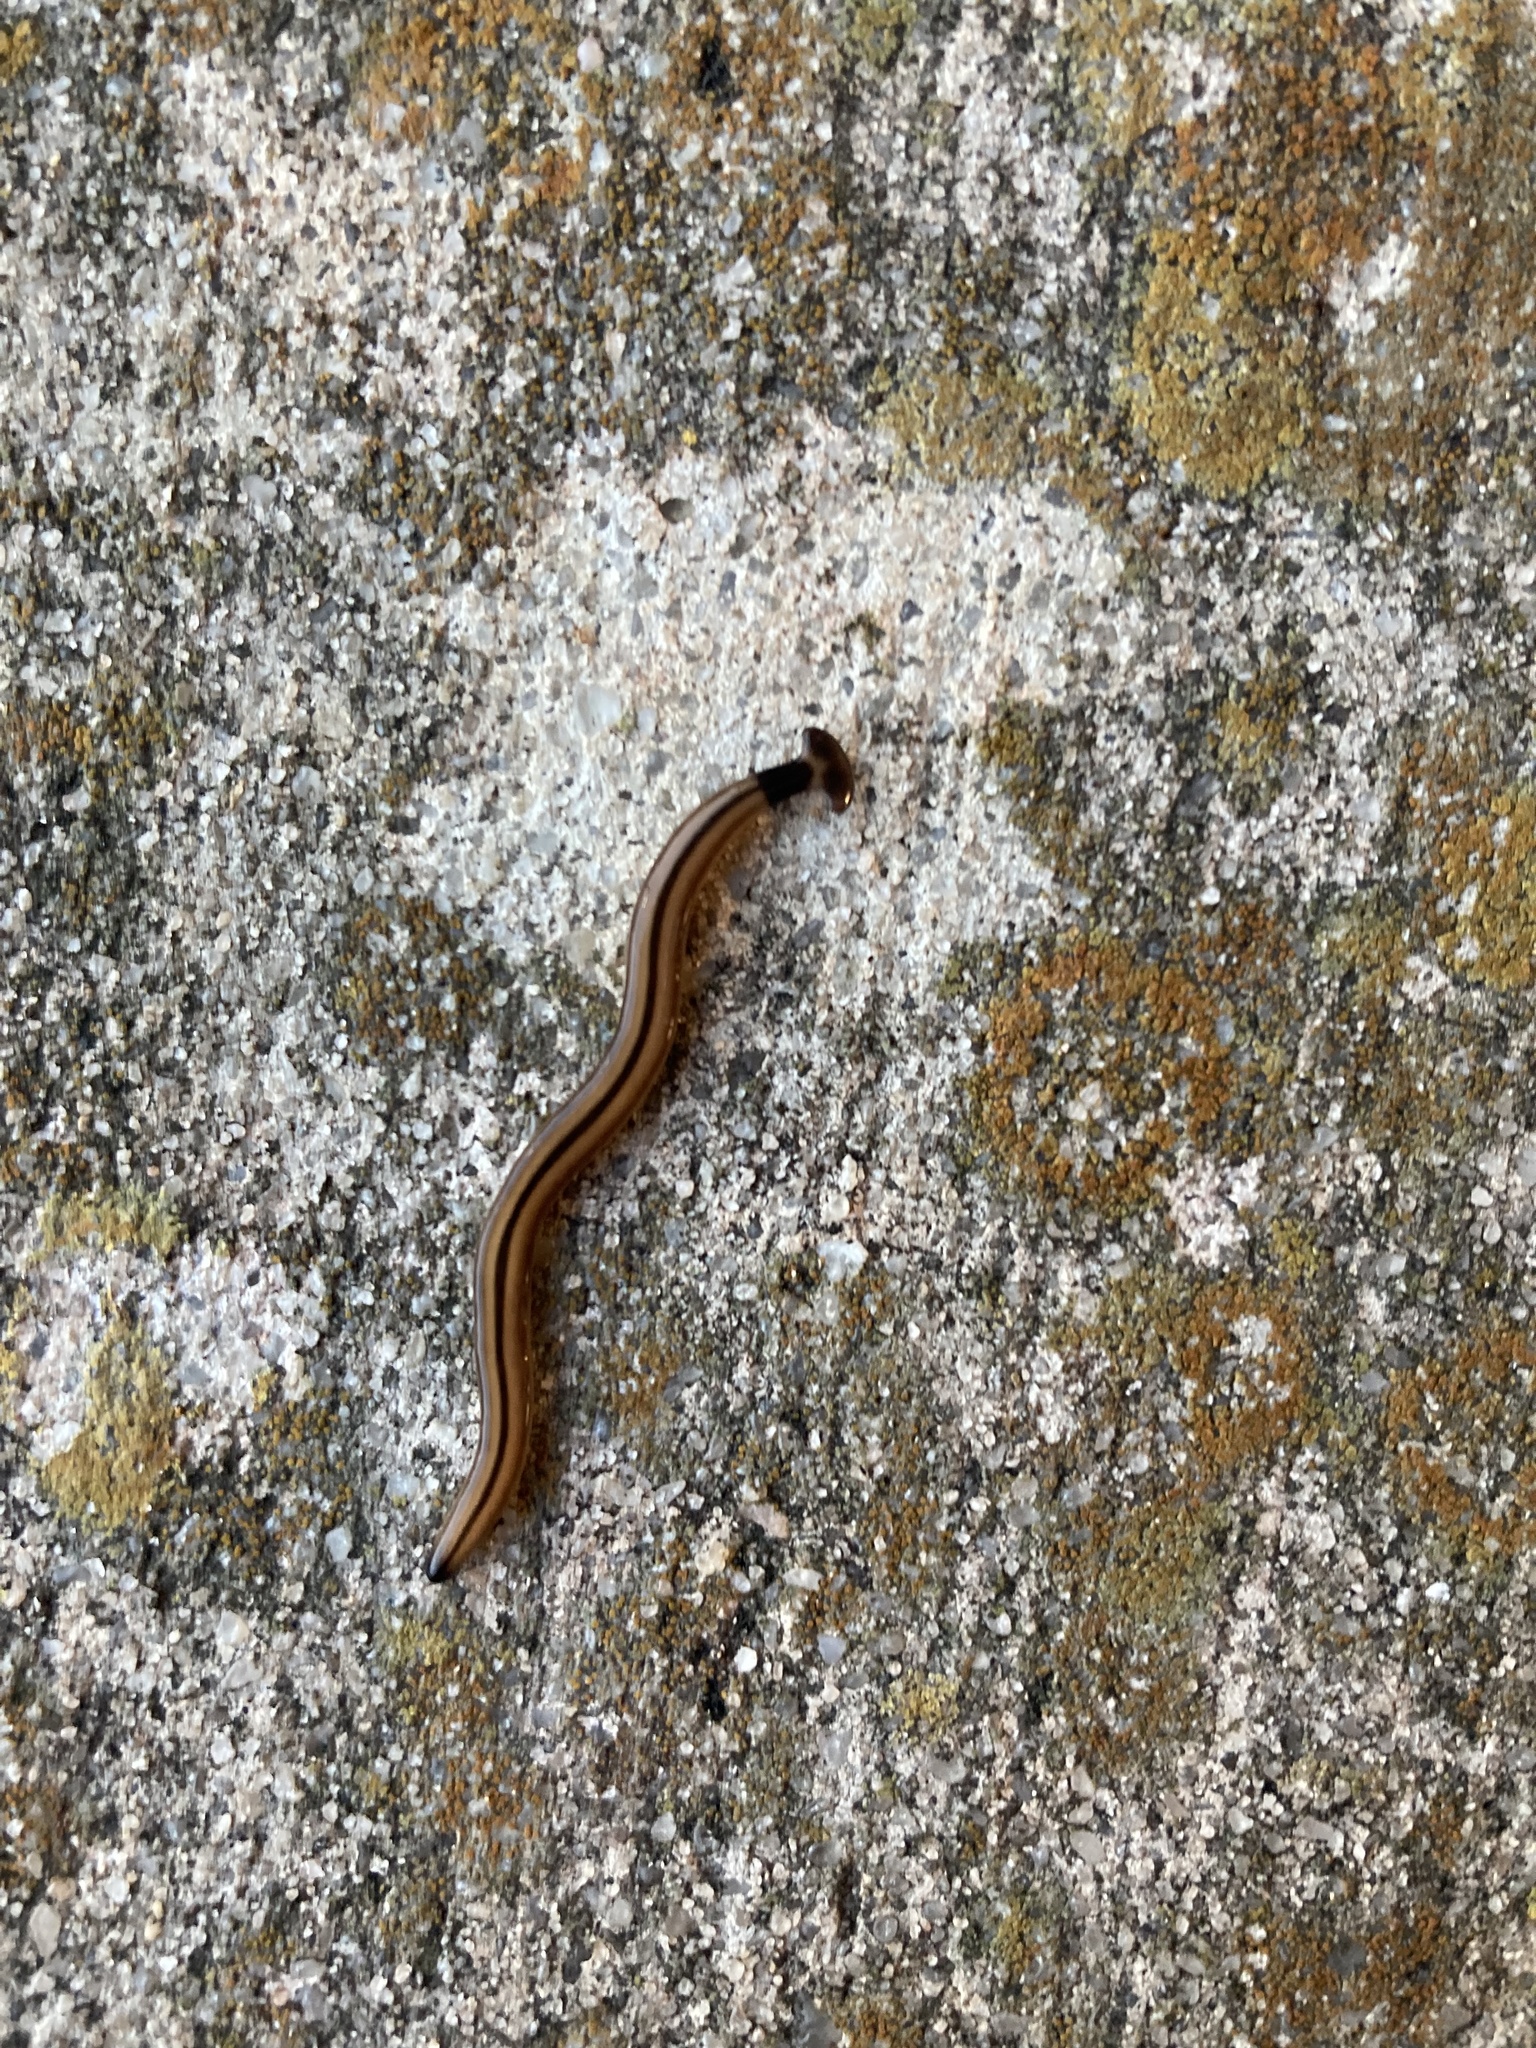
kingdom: Animalia
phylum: Platyhelminthes
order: Tricladida
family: Geoplanidae
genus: Bipalium
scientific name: Bipalium vagum
